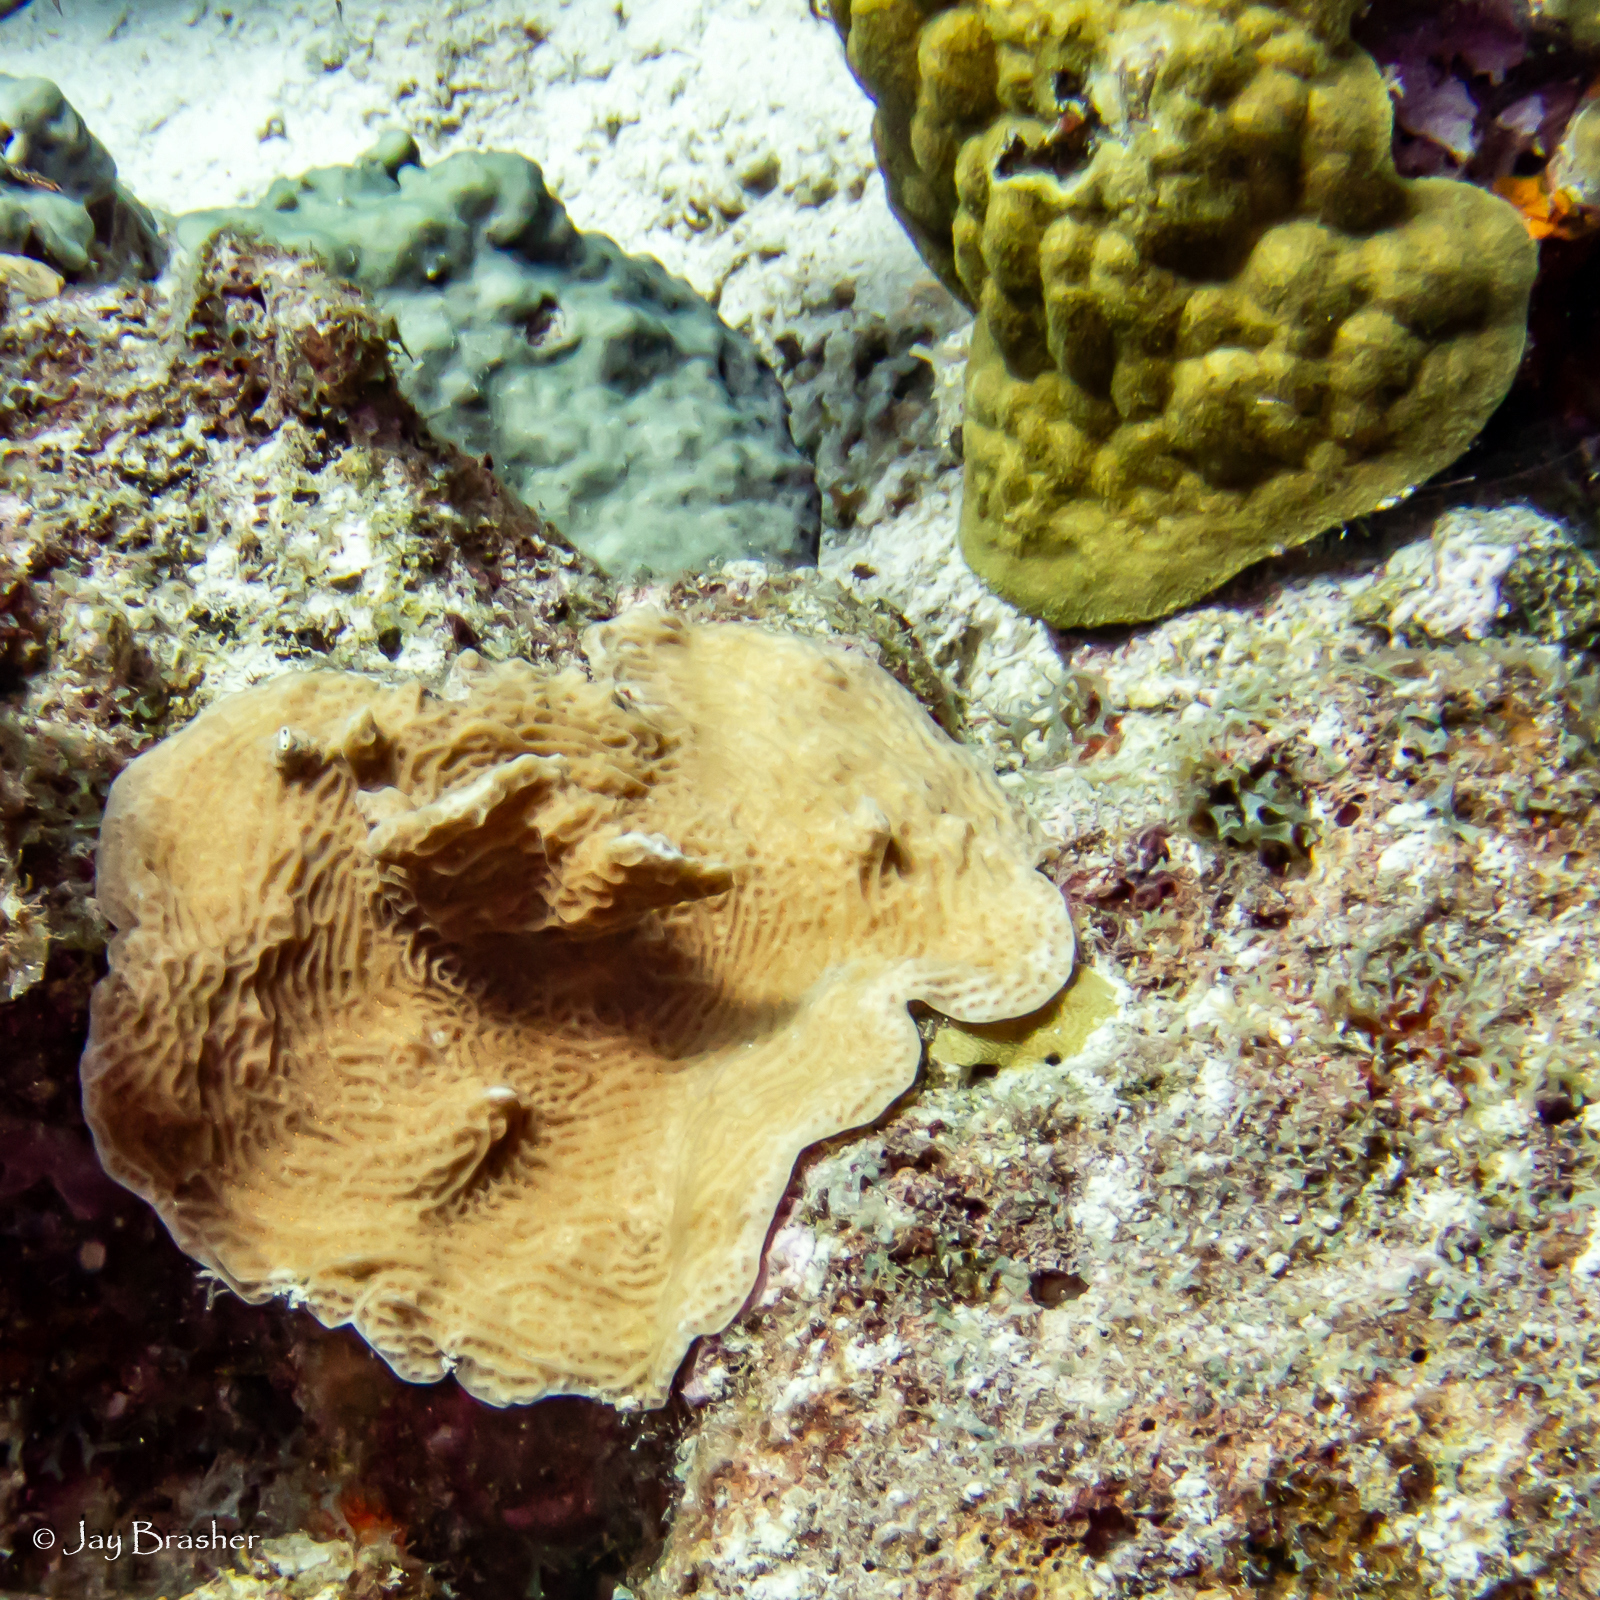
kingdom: Animalia
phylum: Cnidaria
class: Anthozoa
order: Scleractinia
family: Agariciidae
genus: Agaricia
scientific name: Agaricia agaricites
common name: Lettuce coral
